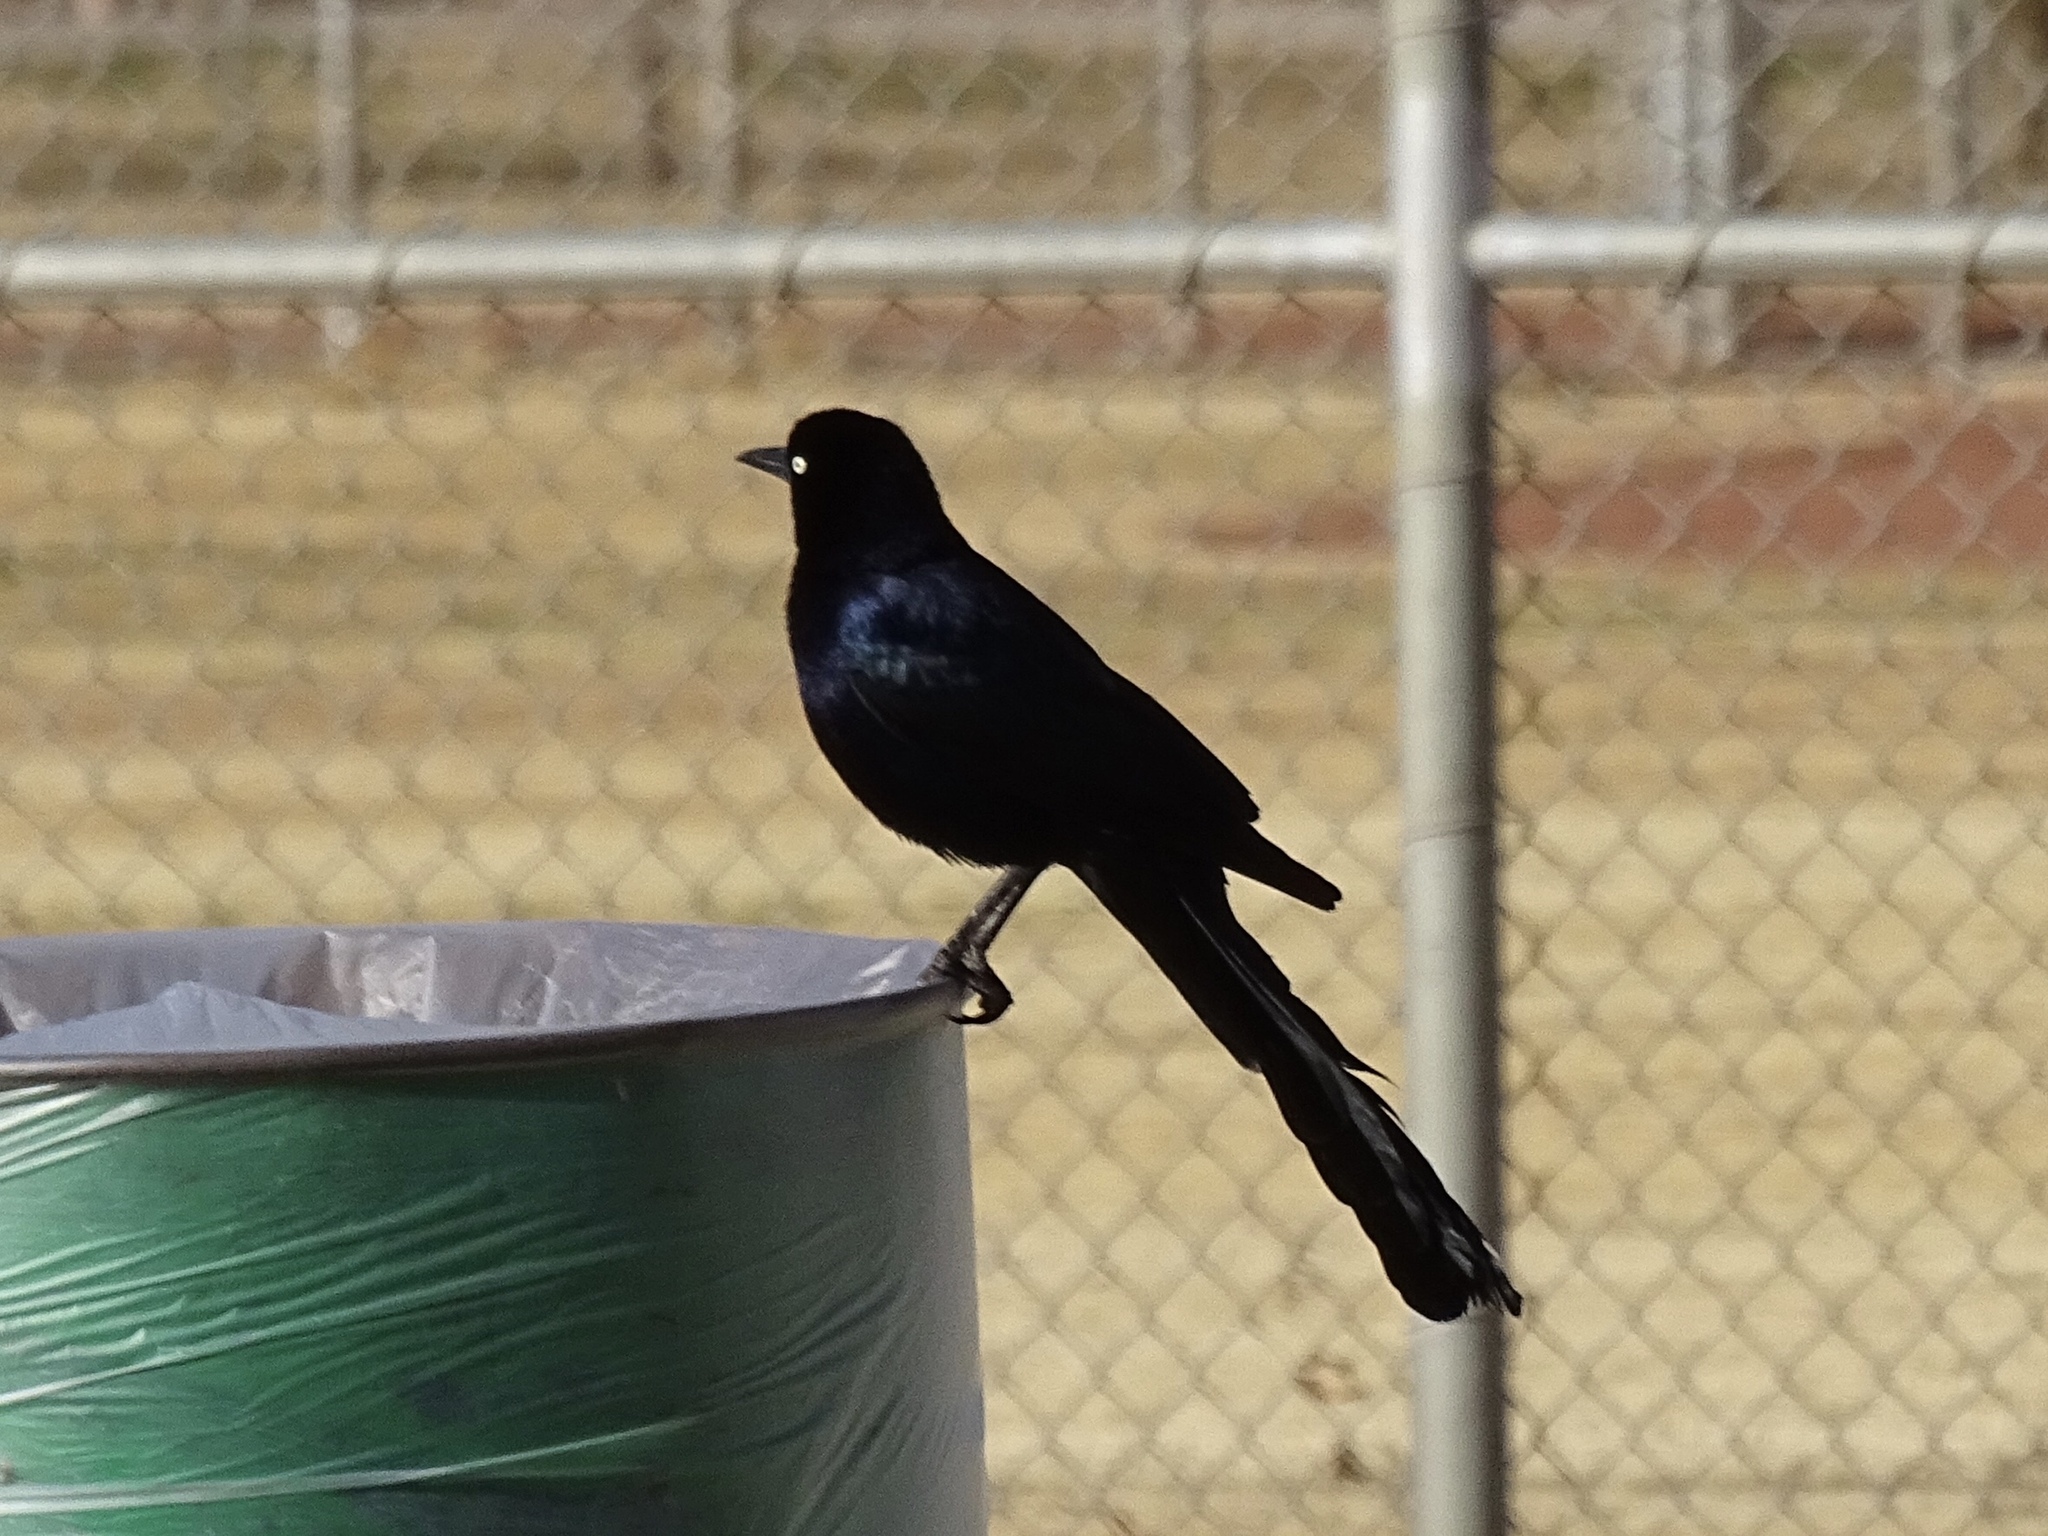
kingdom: Animalia
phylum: Chordata
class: Aves
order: Passeriformes
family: Icteridae
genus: Quiscalus
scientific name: Quiscalus mexicanus
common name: Great-tailed grackle
